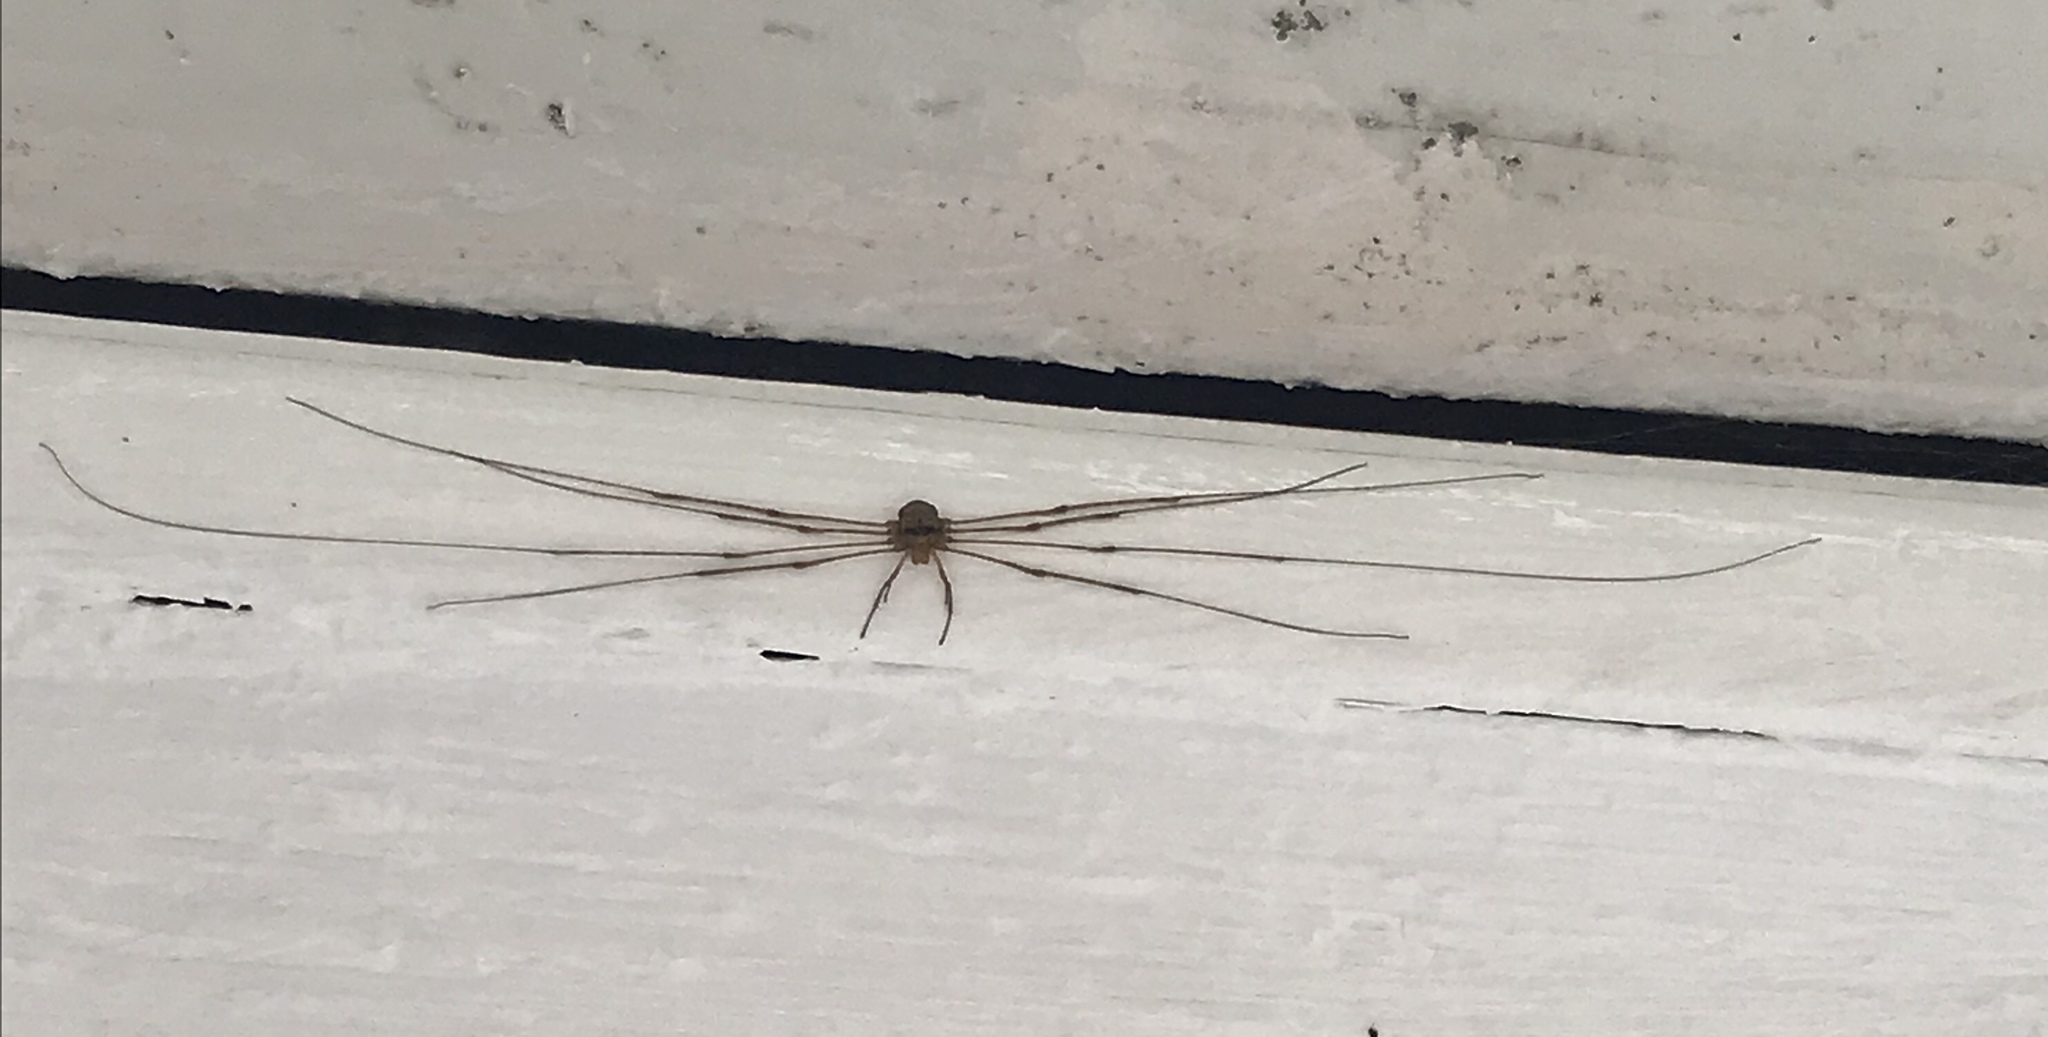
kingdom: Animalia
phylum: Arthropoda
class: Arachnida
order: Opiliones
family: Phalangiidae
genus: Dicranopalpus
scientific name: Dicranopalpus ramosus
